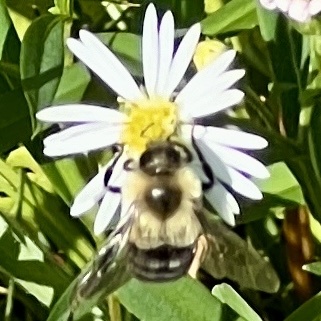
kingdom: Animalia
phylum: Arthropoda
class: Insecta
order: Hymenoptera
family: Apidae
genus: Bombus
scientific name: Bombus impatiens
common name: Common eastern bumble bee
